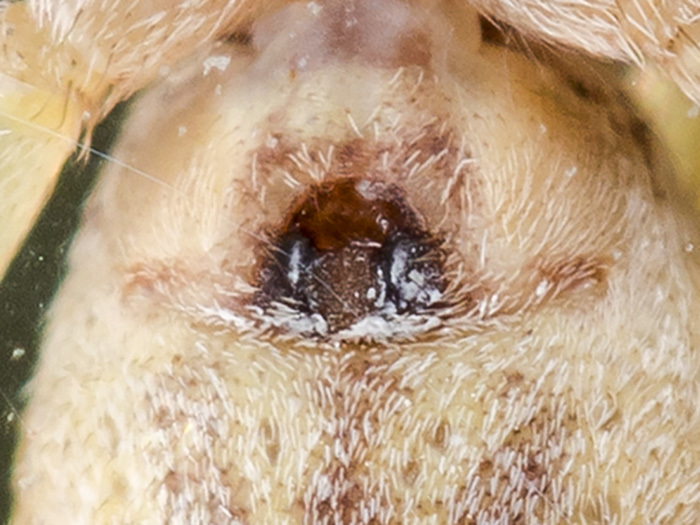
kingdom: Animalia
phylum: Arthropoda
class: Arachnida
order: Araneae
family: Philodromidae
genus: Philodromus
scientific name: Philodromus cespitum
